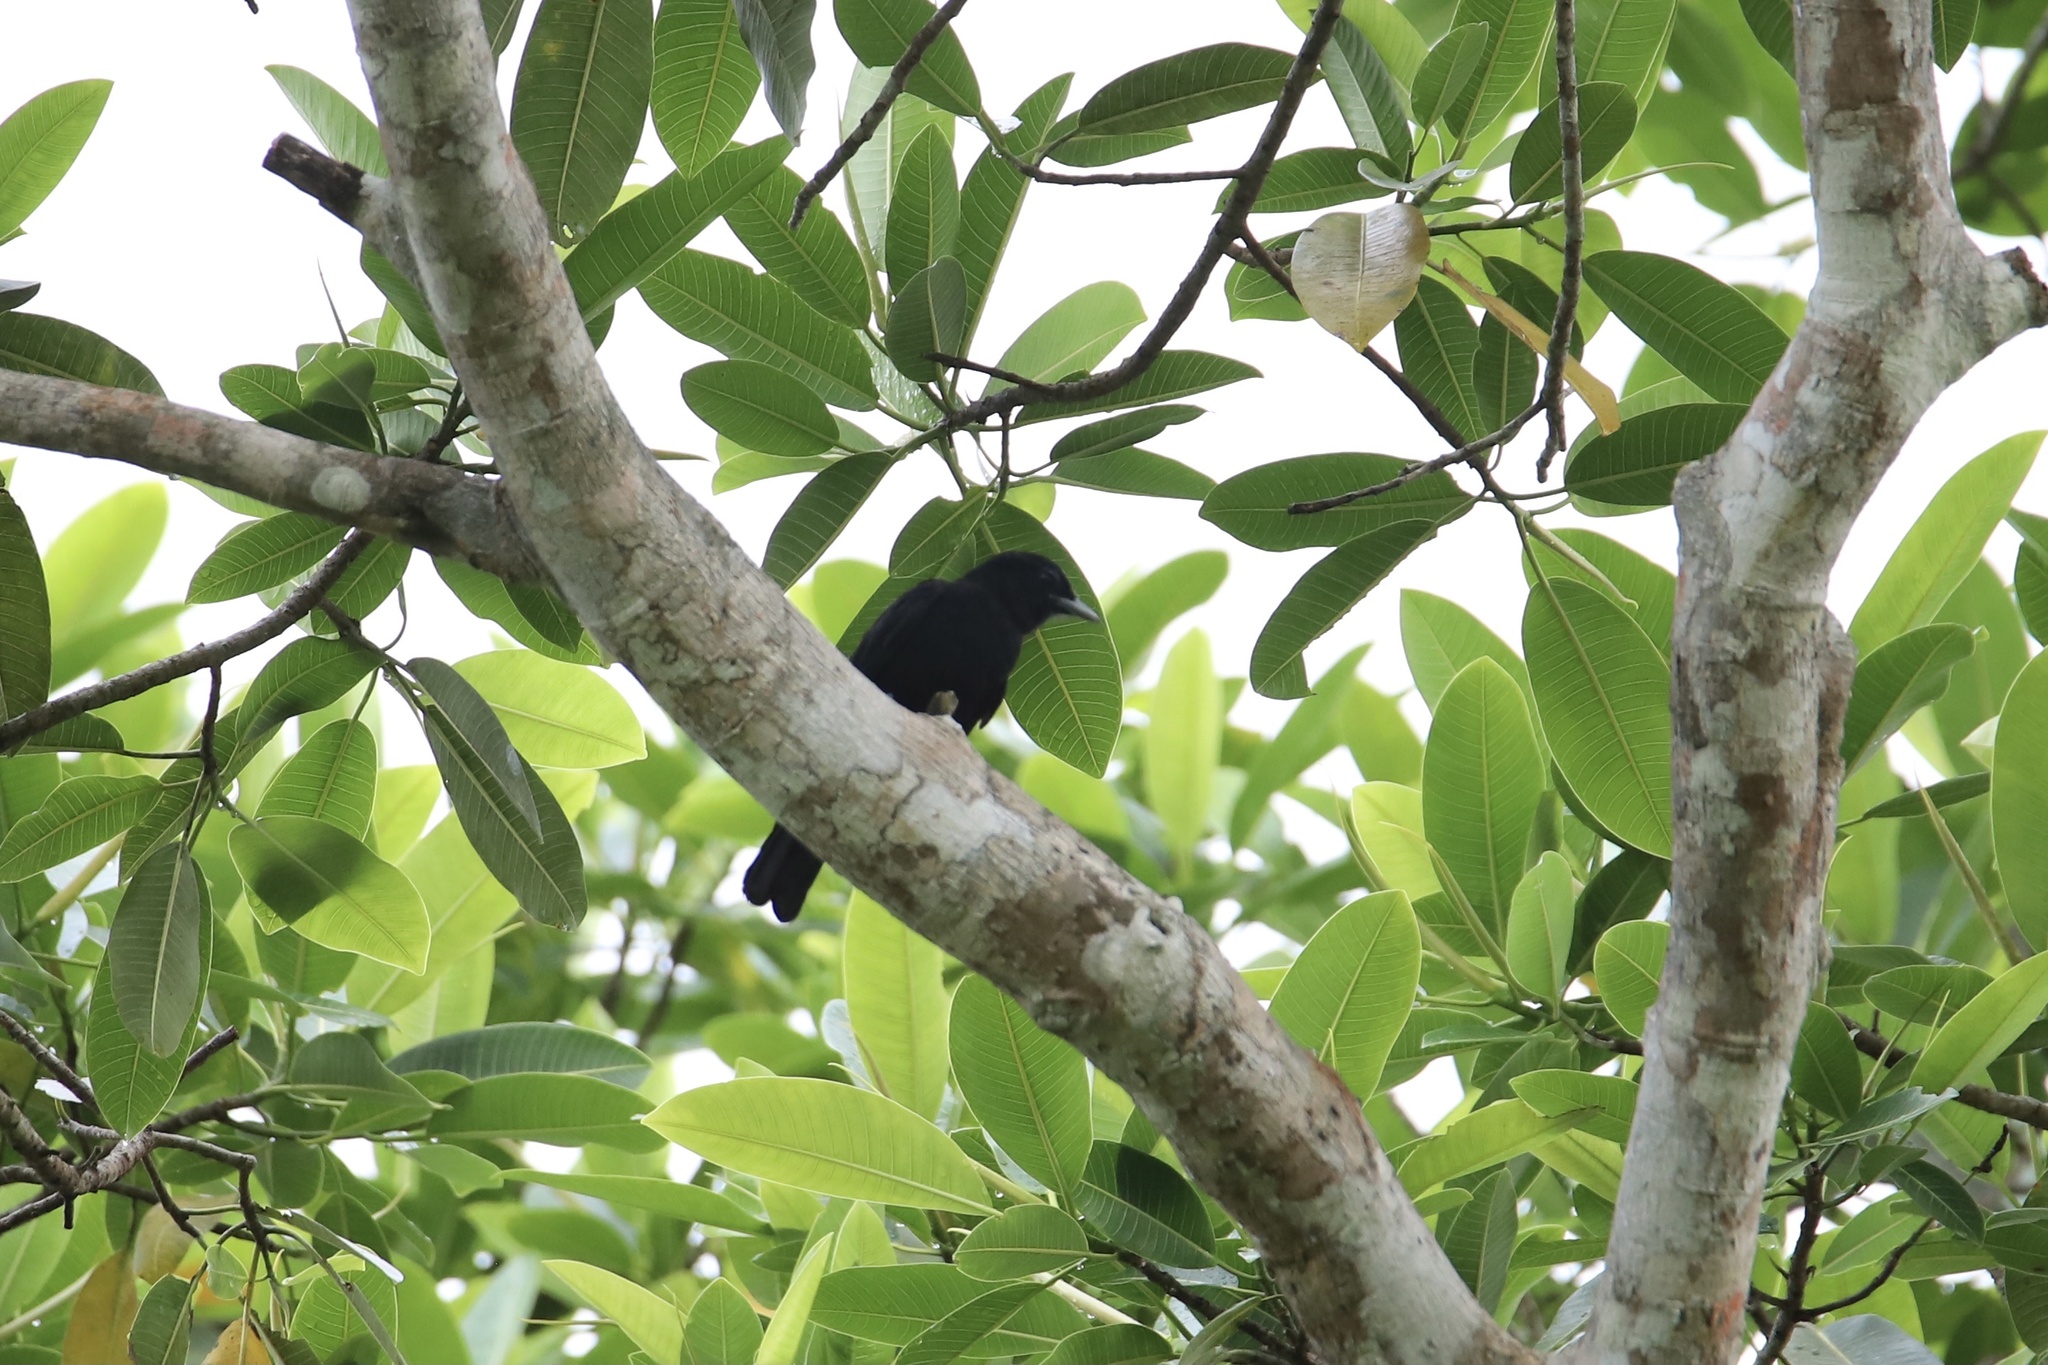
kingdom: Animalia
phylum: Chordata
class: Aves
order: Passeriformes
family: Cotingidae
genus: Querula
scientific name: Querula purpurata
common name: Purple-throated fruitcrow
